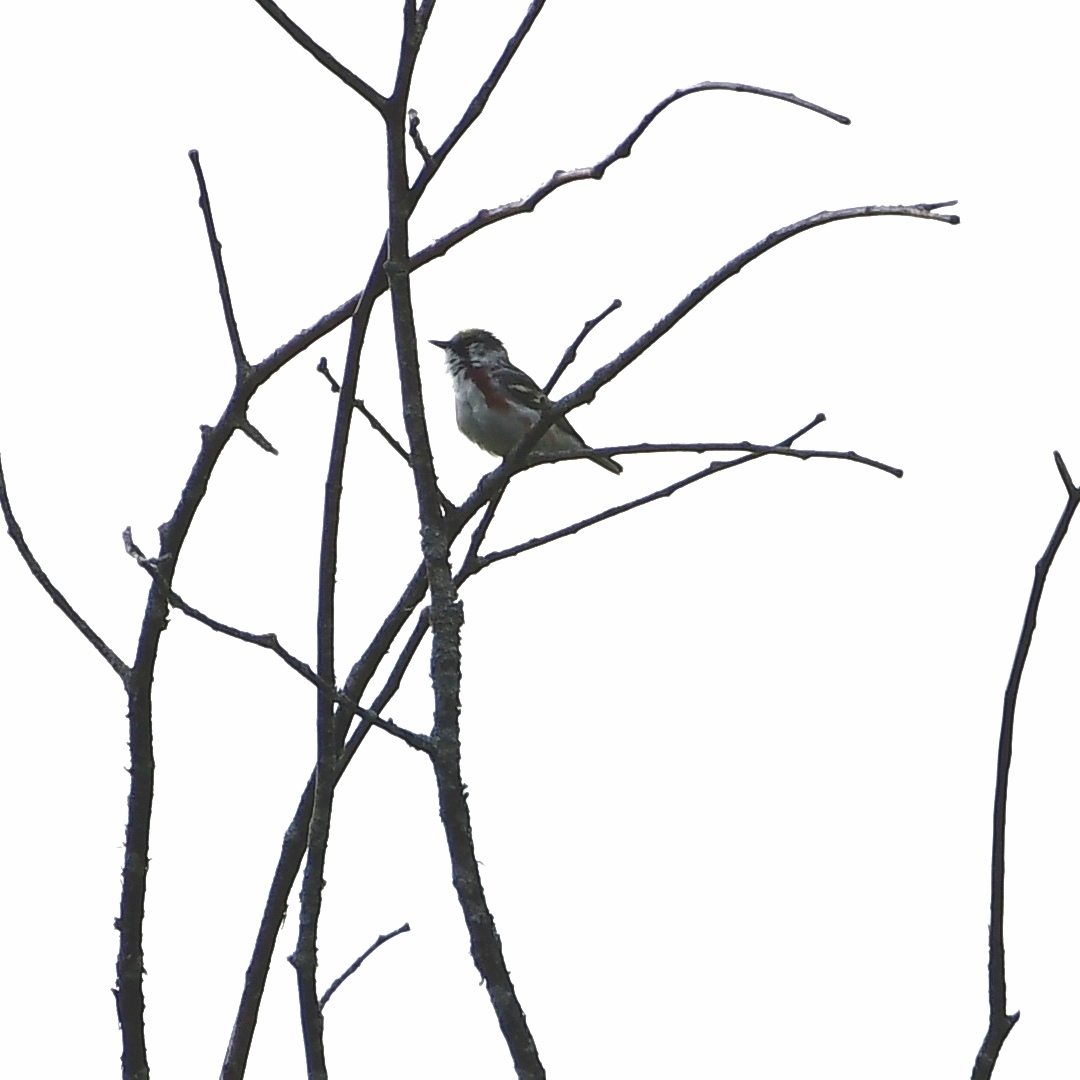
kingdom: Animalia
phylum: Chordata
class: Aves
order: Passeriformes
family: Parulidae
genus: Setophaga
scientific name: Setophaga pensylvanica
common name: Chestnut-sided warbler
